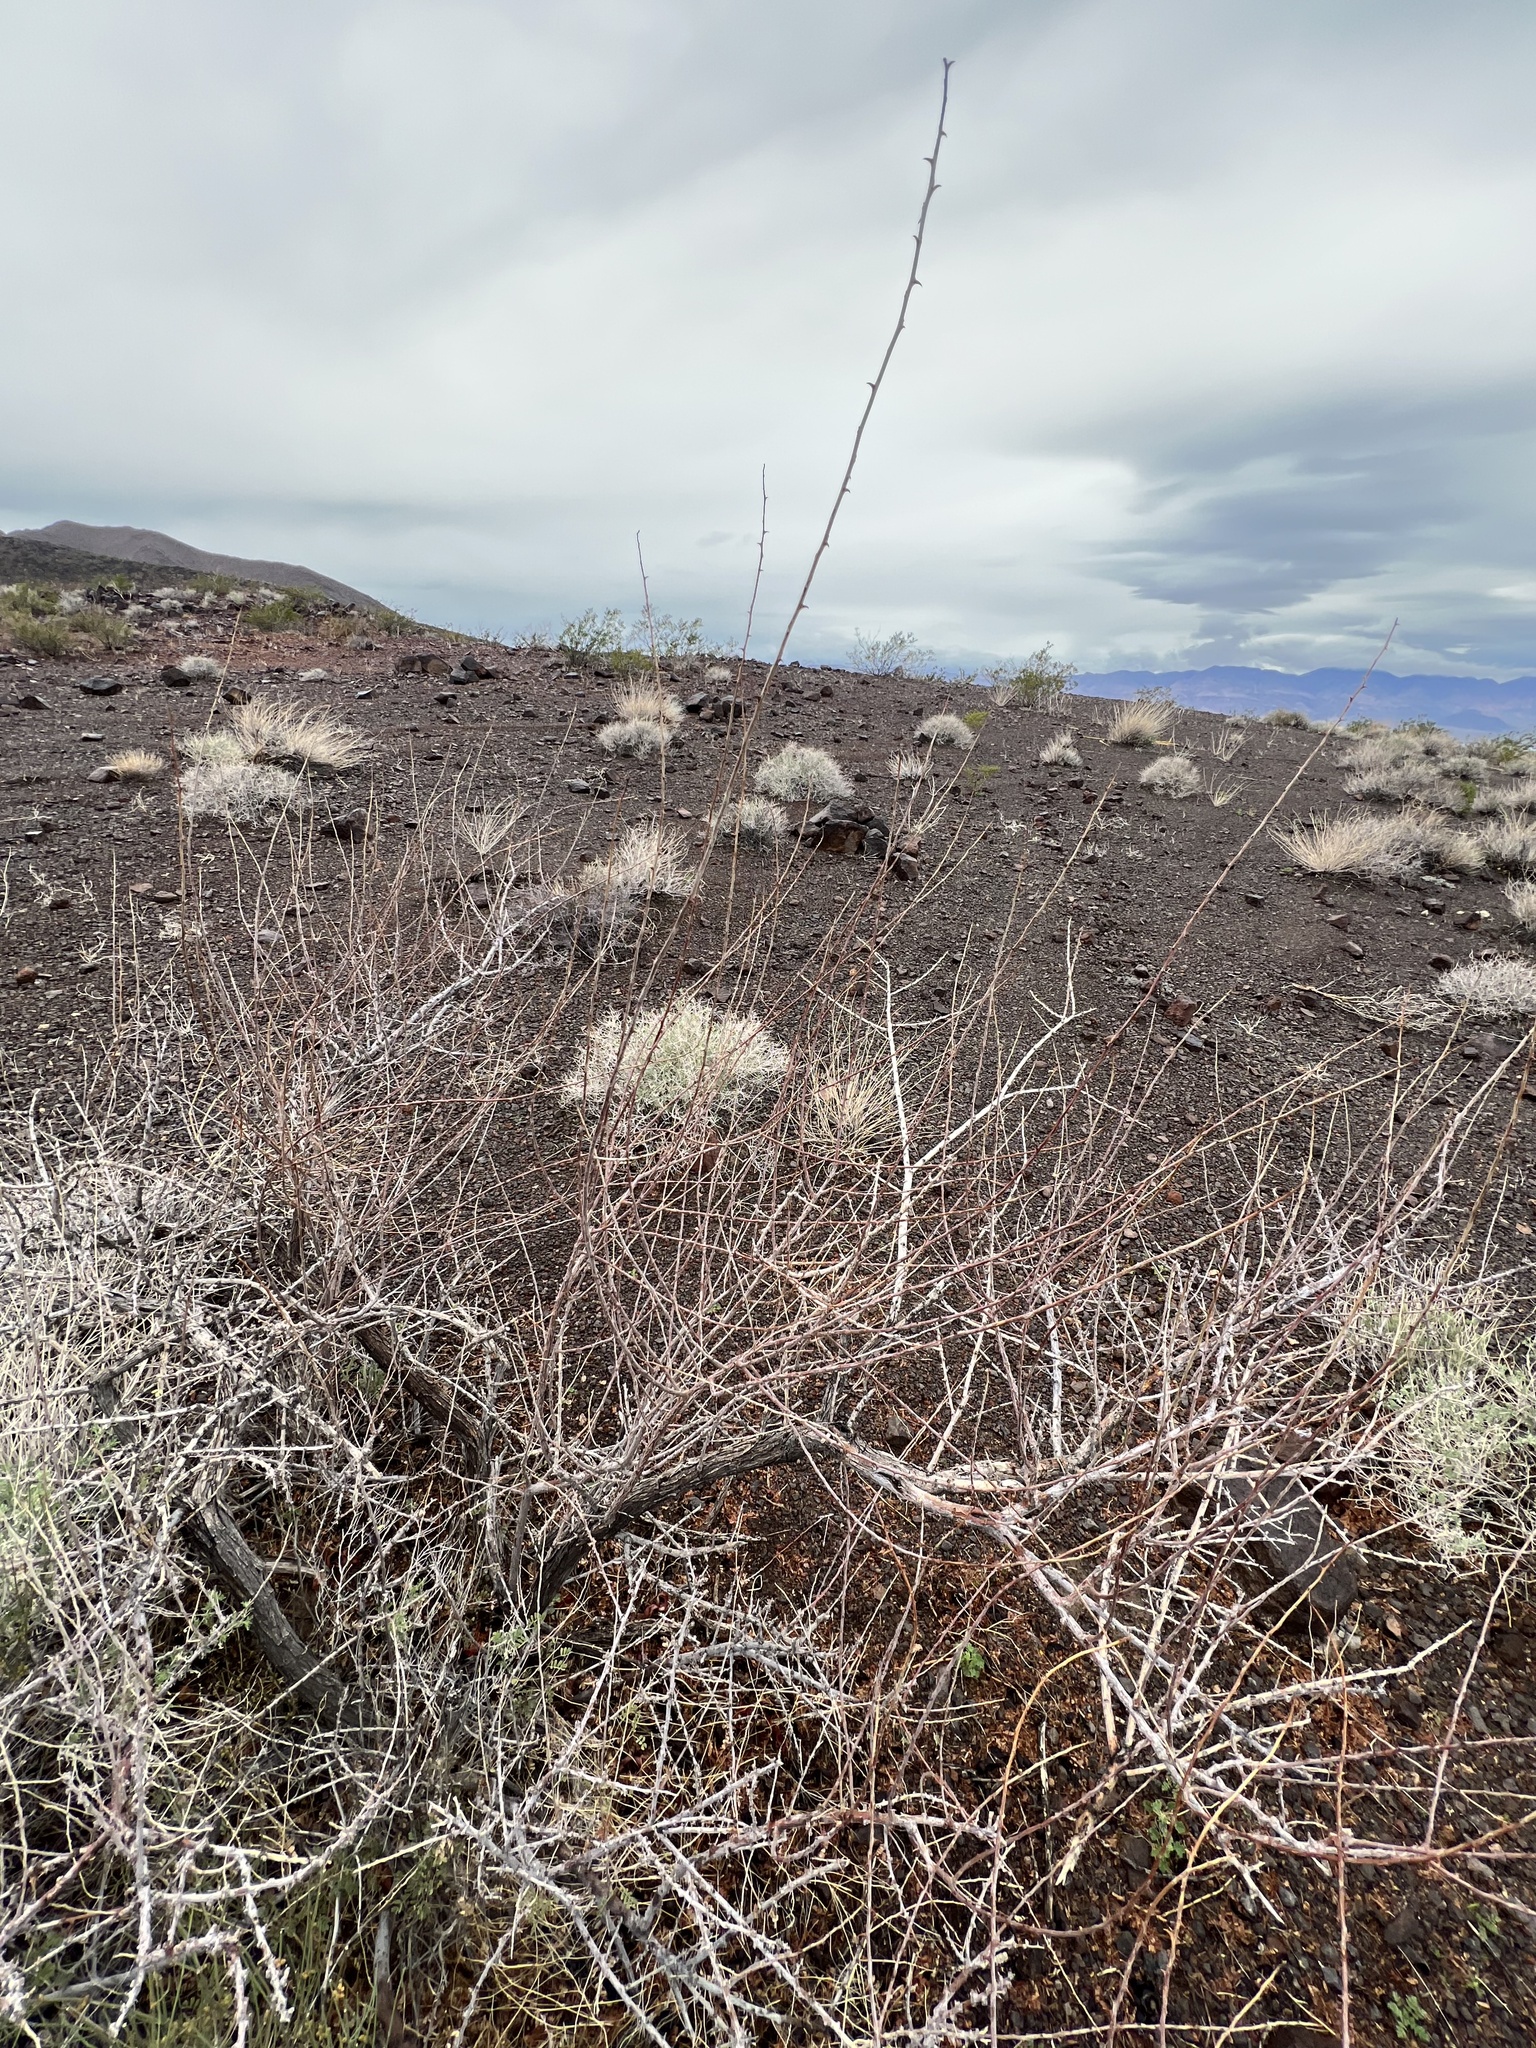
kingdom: Plantae
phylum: Tracheophyta
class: Magnoliopsida
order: Fabales
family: Fabaceae
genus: Senegalia
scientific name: Senegalia greggii
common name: Texas-mimosa
